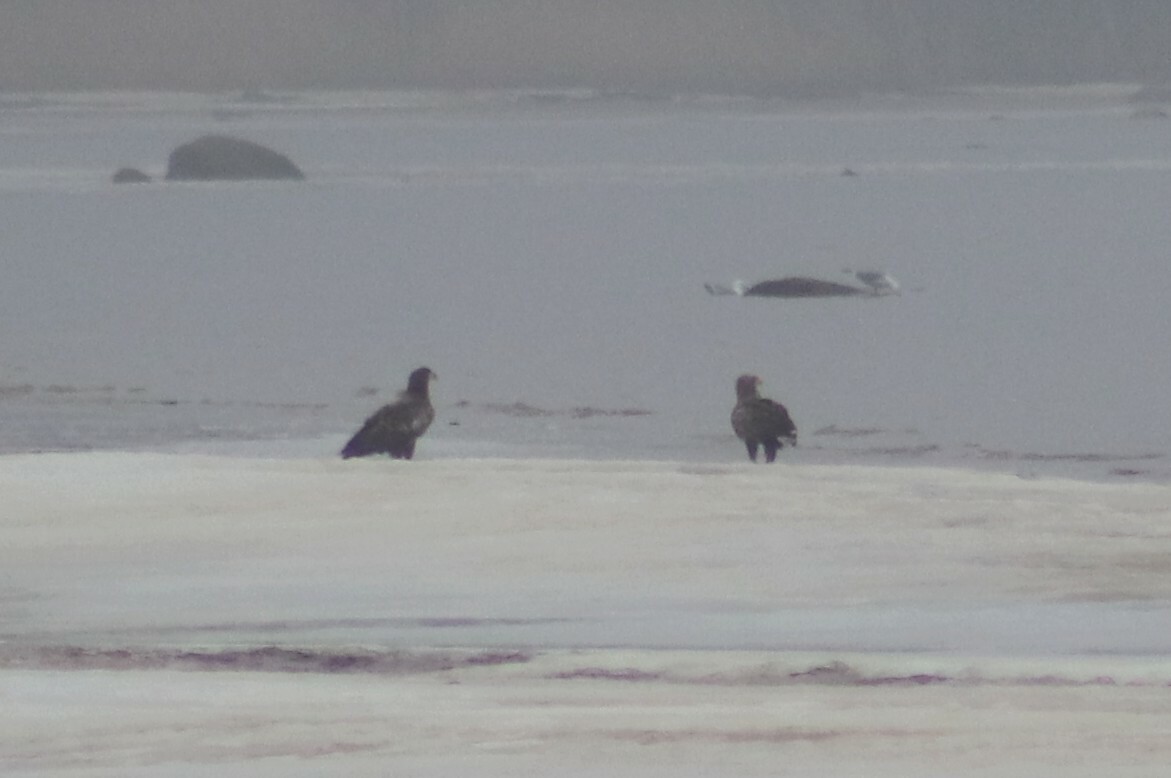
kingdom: Animalia
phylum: Chordata
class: Aves
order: Accipitriformes
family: Accipitridae
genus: Haliaeetus
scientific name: Haliaeetus albicilla
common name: White-tailed eagle
